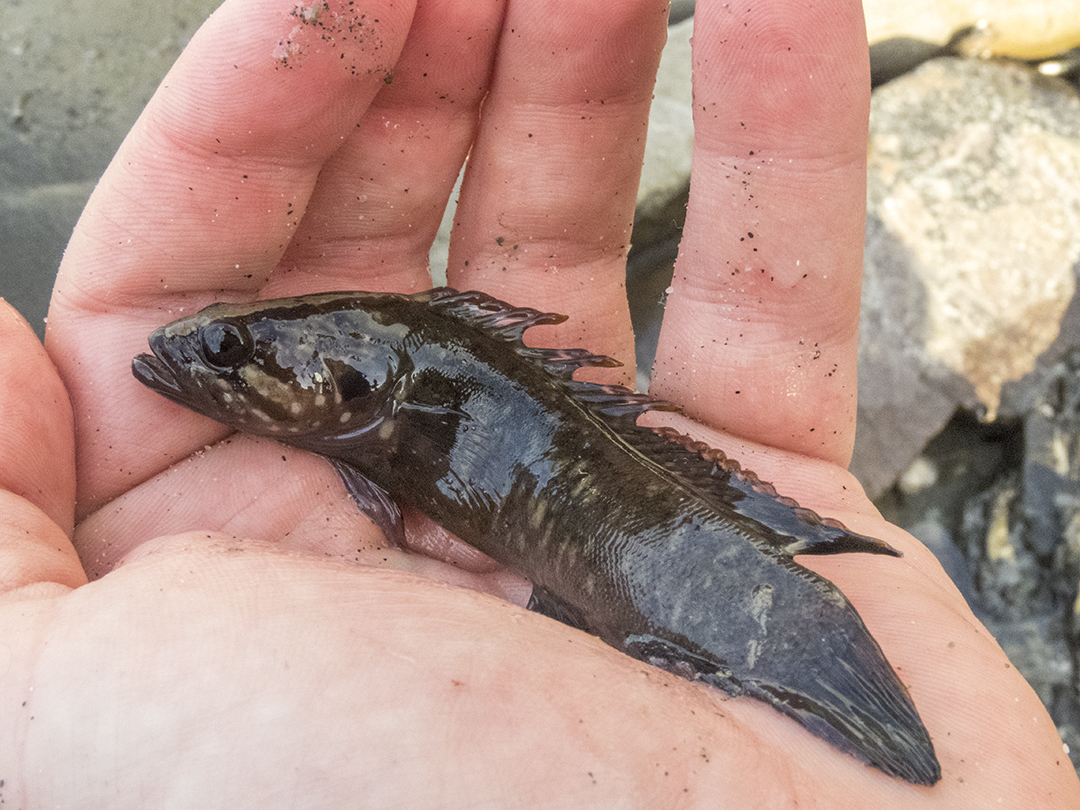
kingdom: Animalia
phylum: Chordata
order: Perciformes
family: Plesiopidae
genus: Acanthoclinus
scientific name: Acanthoclinus fuscus
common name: Olive rockfish
